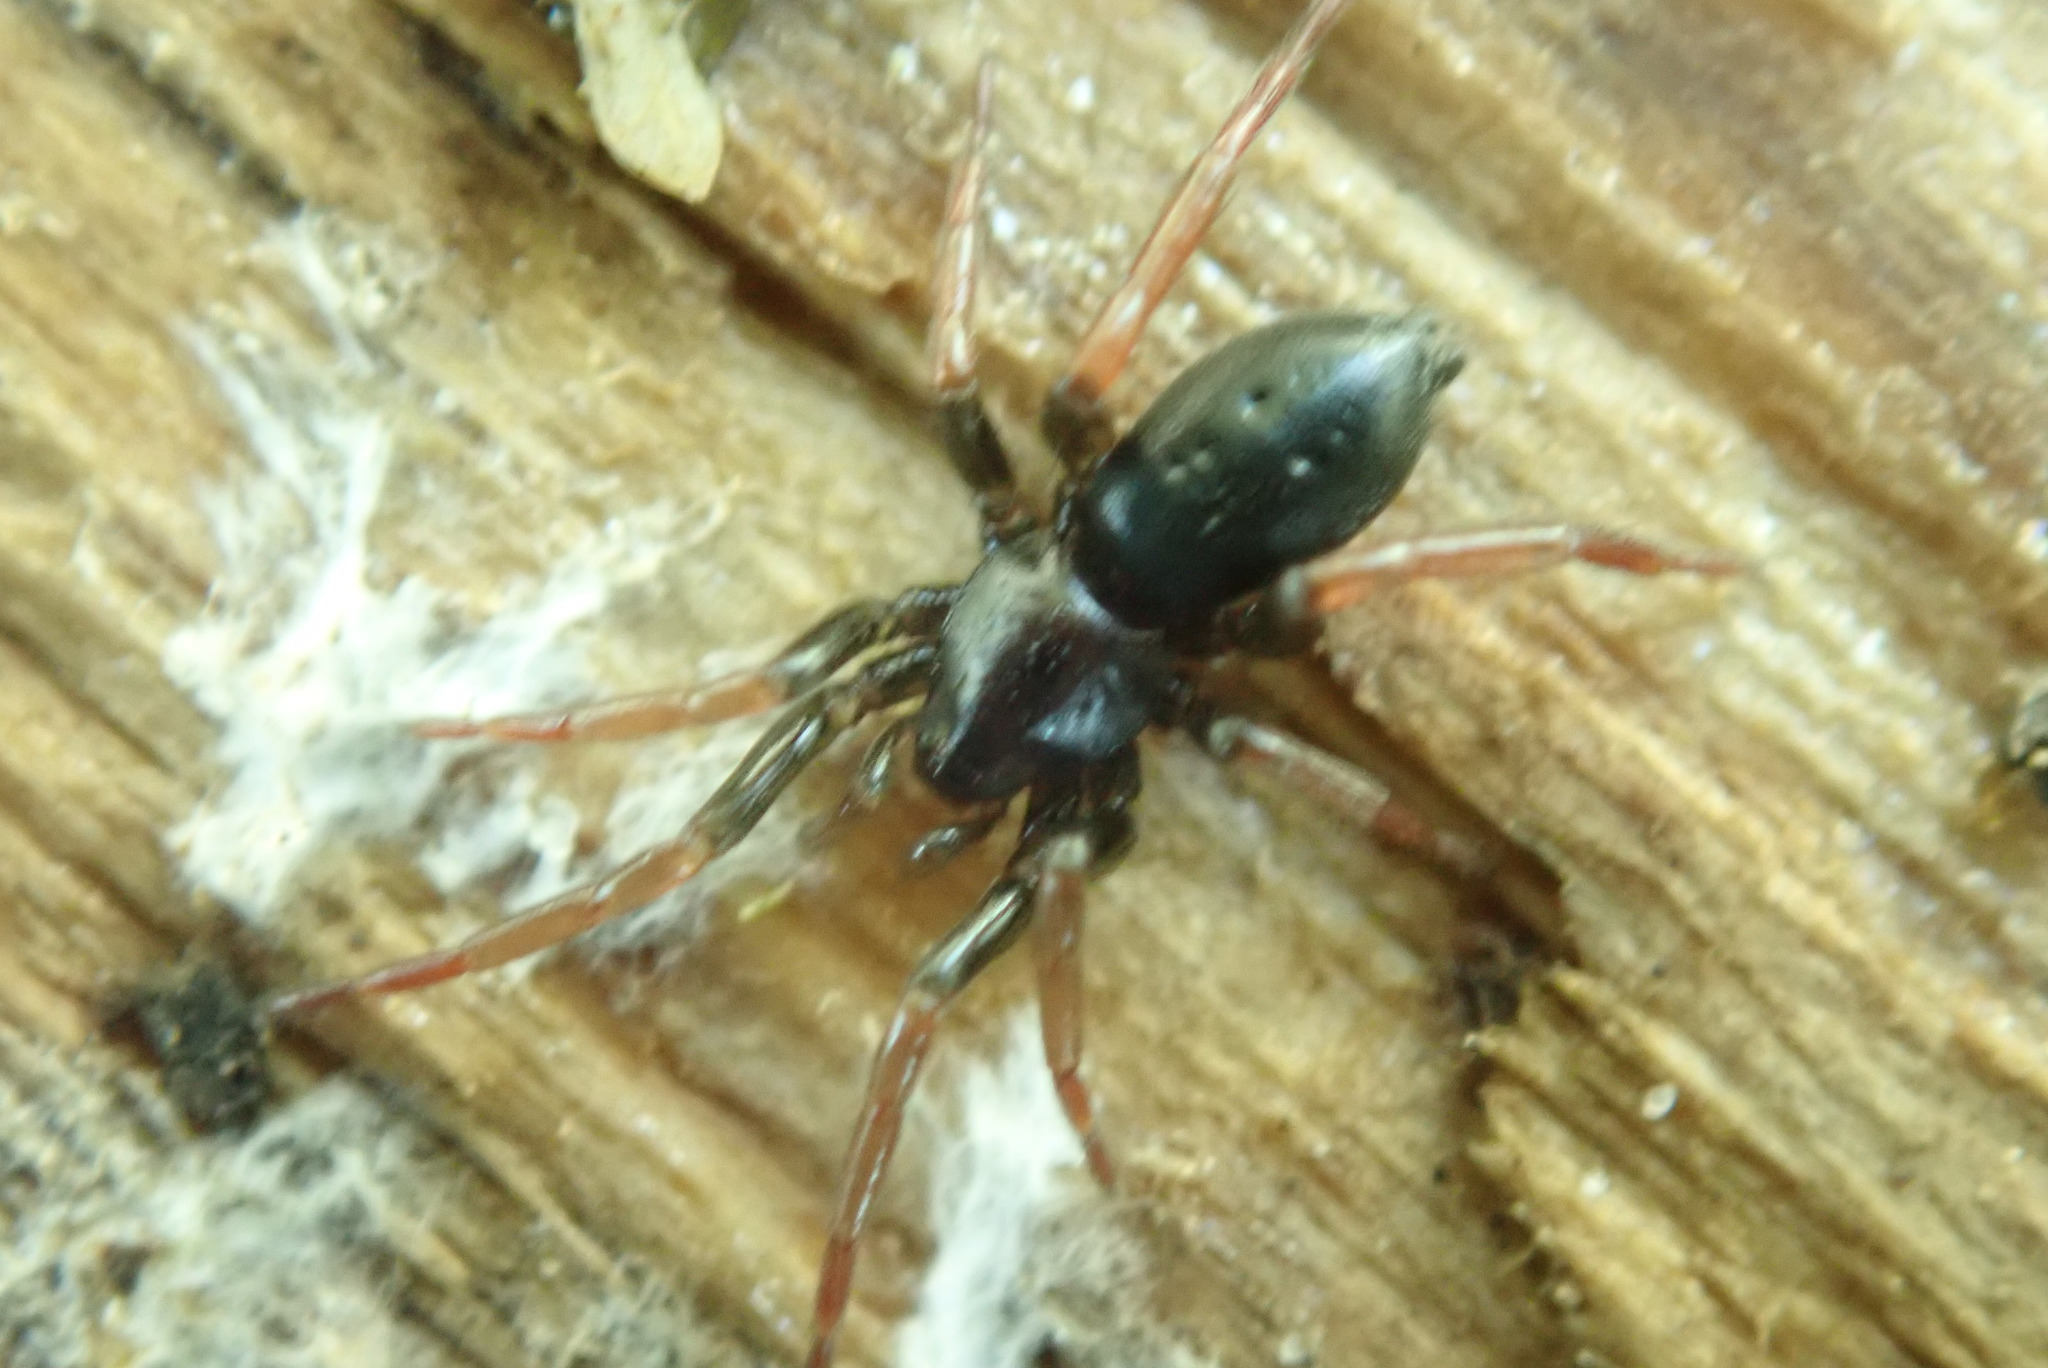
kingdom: Animalia
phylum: Arthropoda
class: Arachnida
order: Araneae
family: Gnaphosidae
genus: Trachyzelotes
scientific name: Trachyzelotes pedestris
